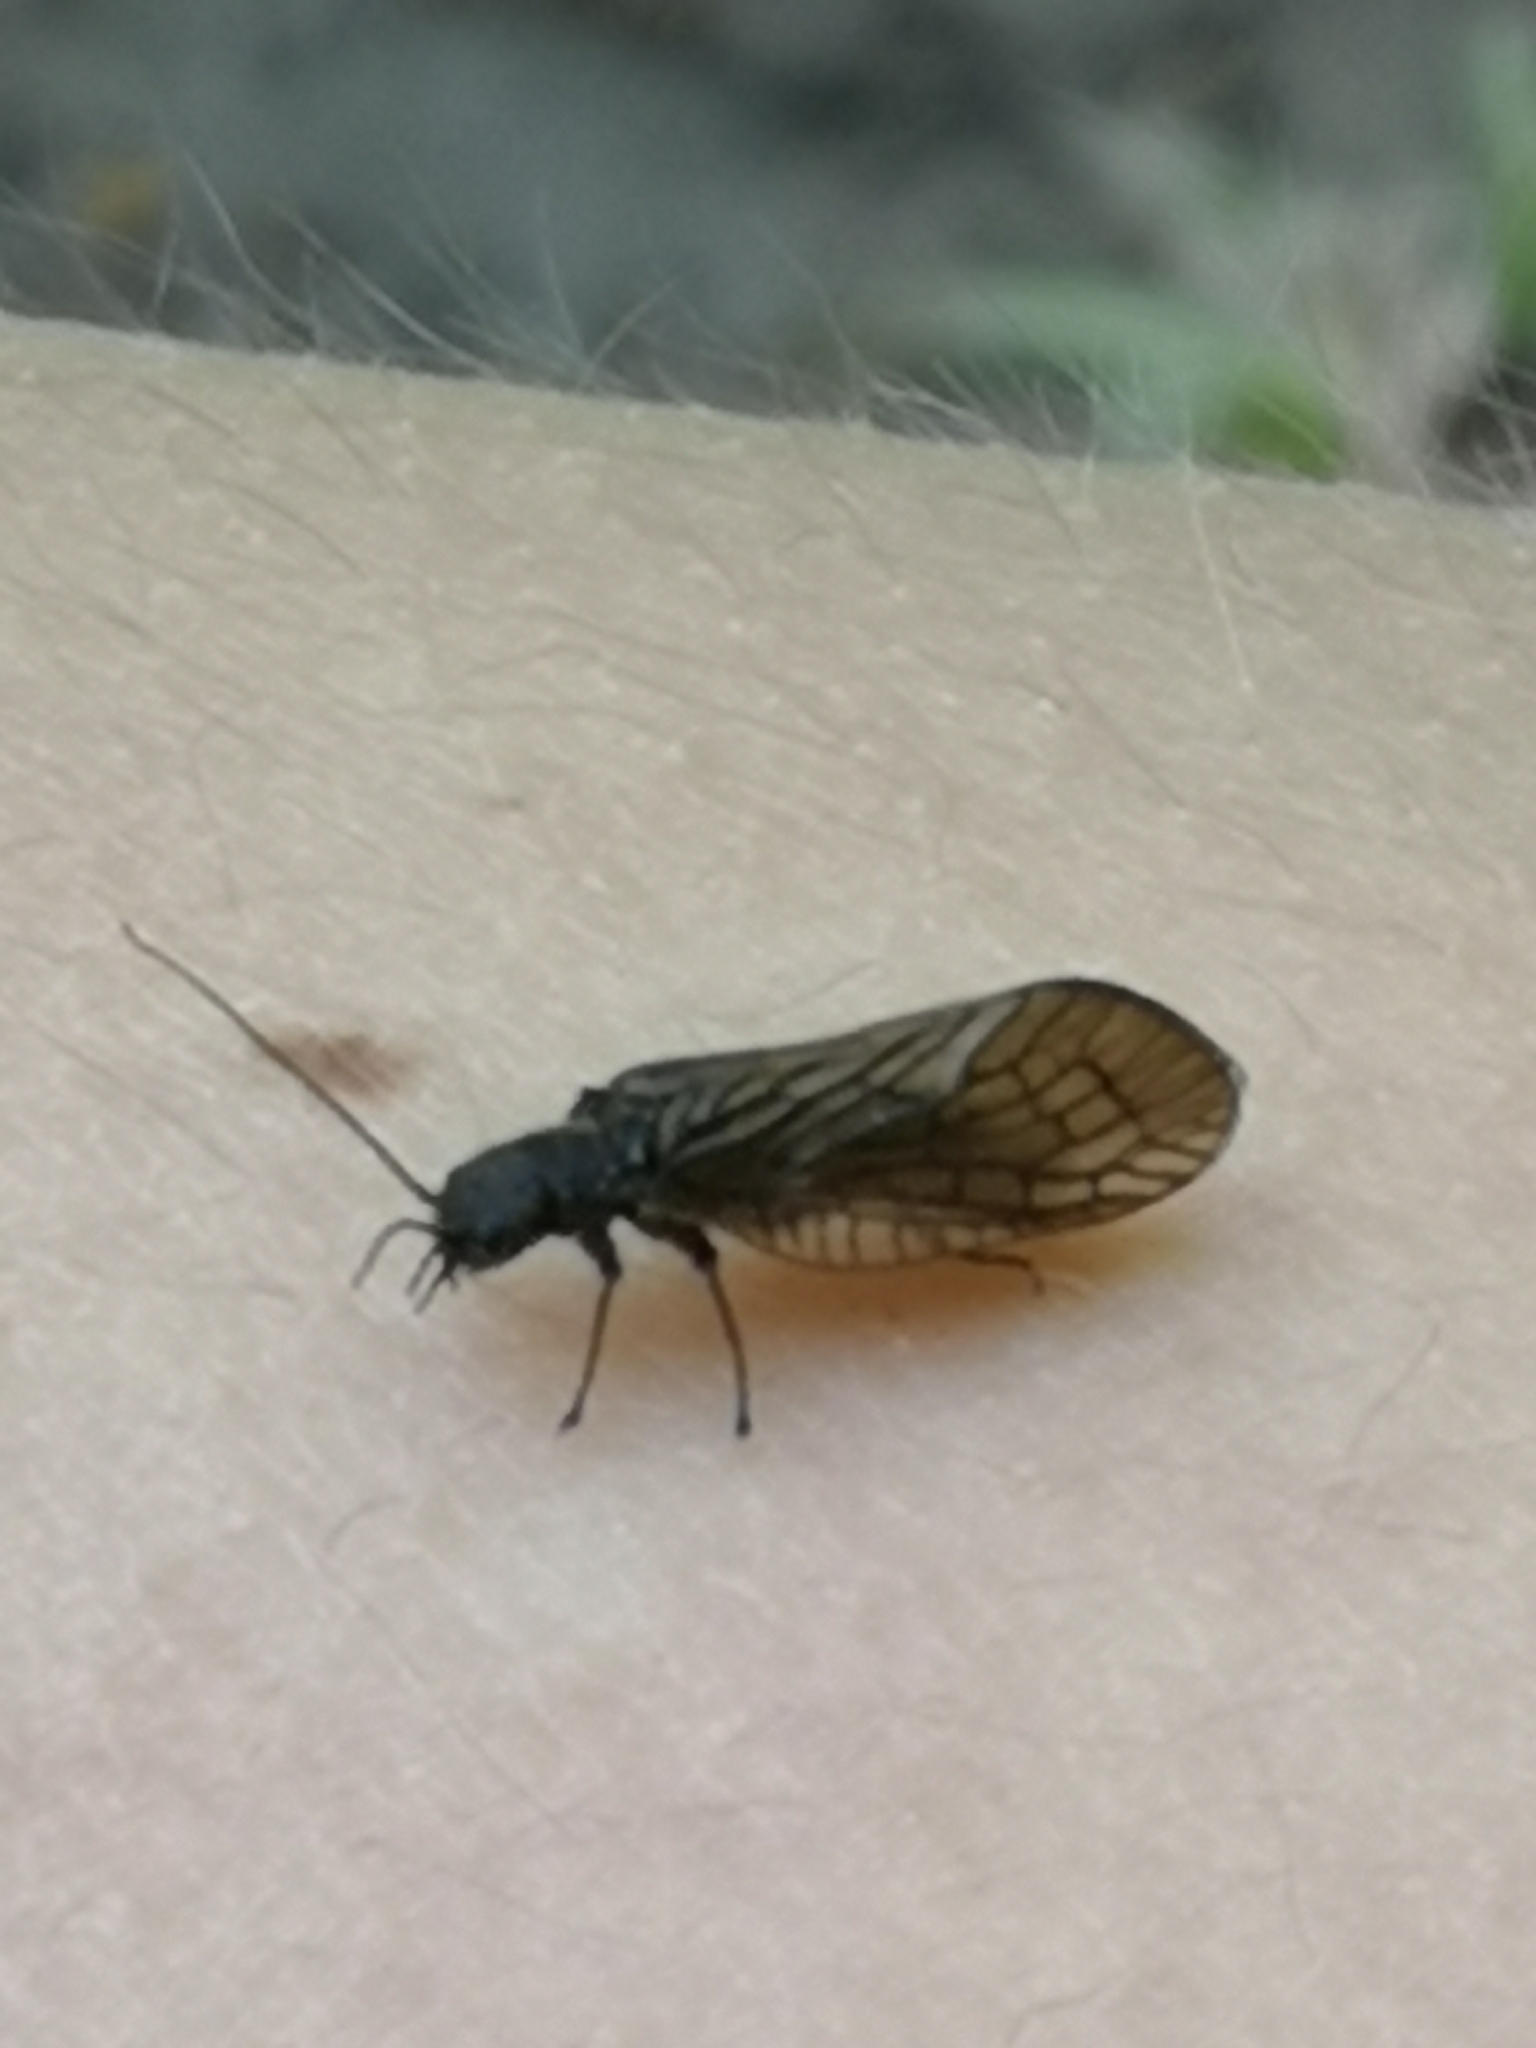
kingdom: Animalia
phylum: Arthropoda
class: Insecta
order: Megaloptera
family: Sialidae
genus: Sialis
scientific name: Sialis
